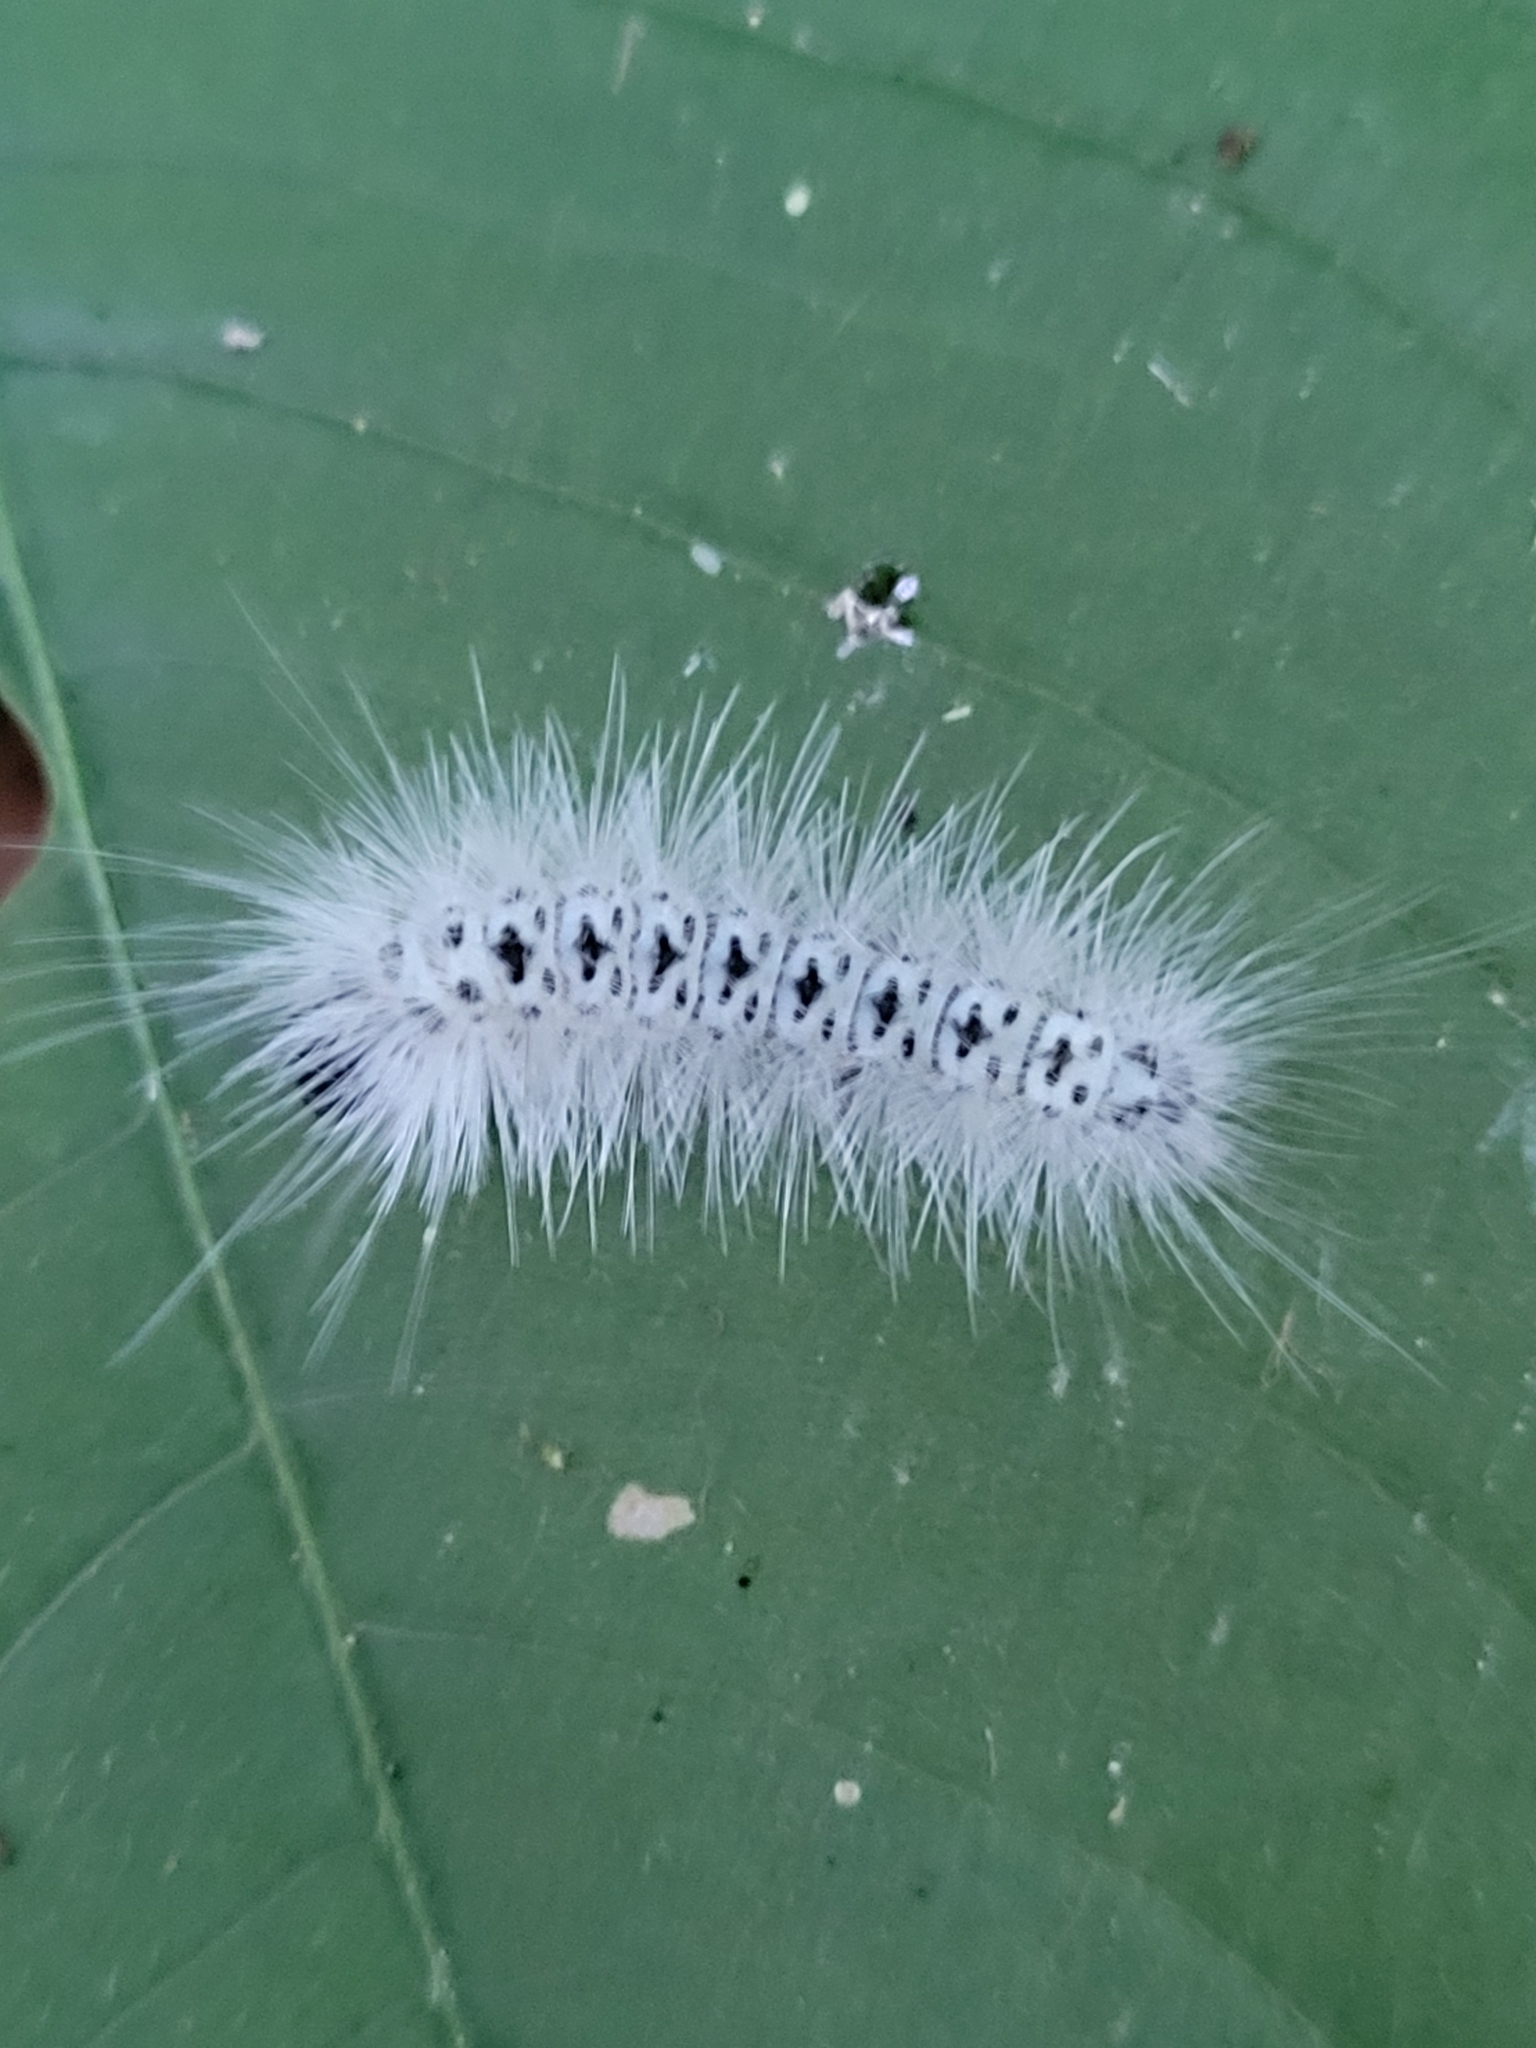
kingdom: Animalia
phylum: Arthropoda
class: Insecta
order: Lepidoptera
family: Erebidae
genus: Lophocampa
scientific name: Lophocampa caryae
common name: Hickory tussock moth
